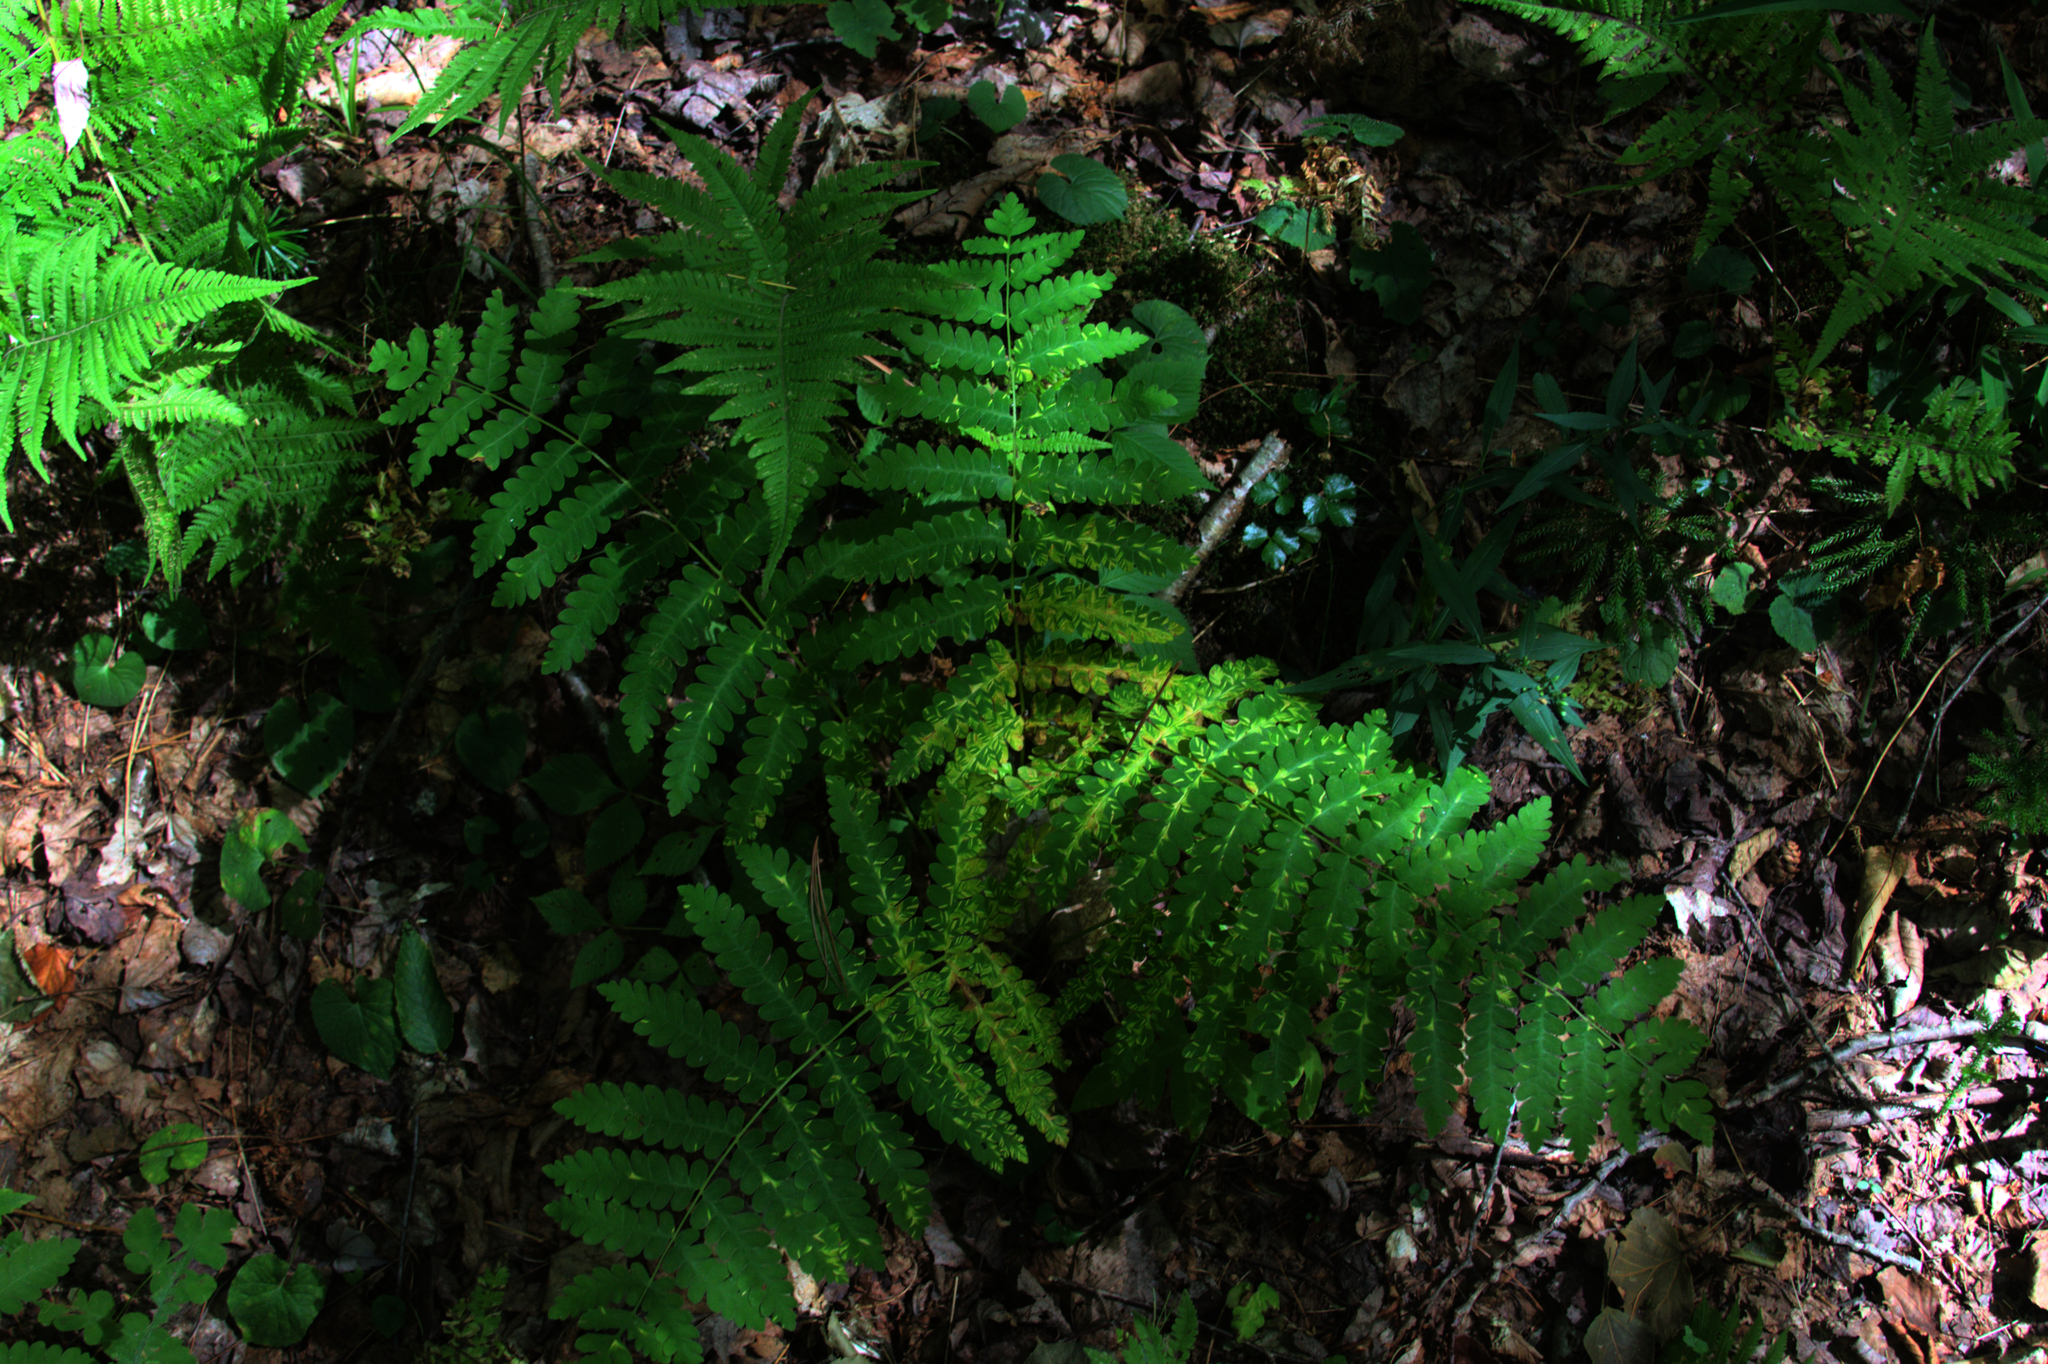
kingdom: Plantae
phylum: Tracheophyta
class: Polypodiopsida
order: Osmundales
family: Osmundaceae
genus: Claytosmunda
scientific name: Claytosmunda claytoniana
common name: Clayton's fern
